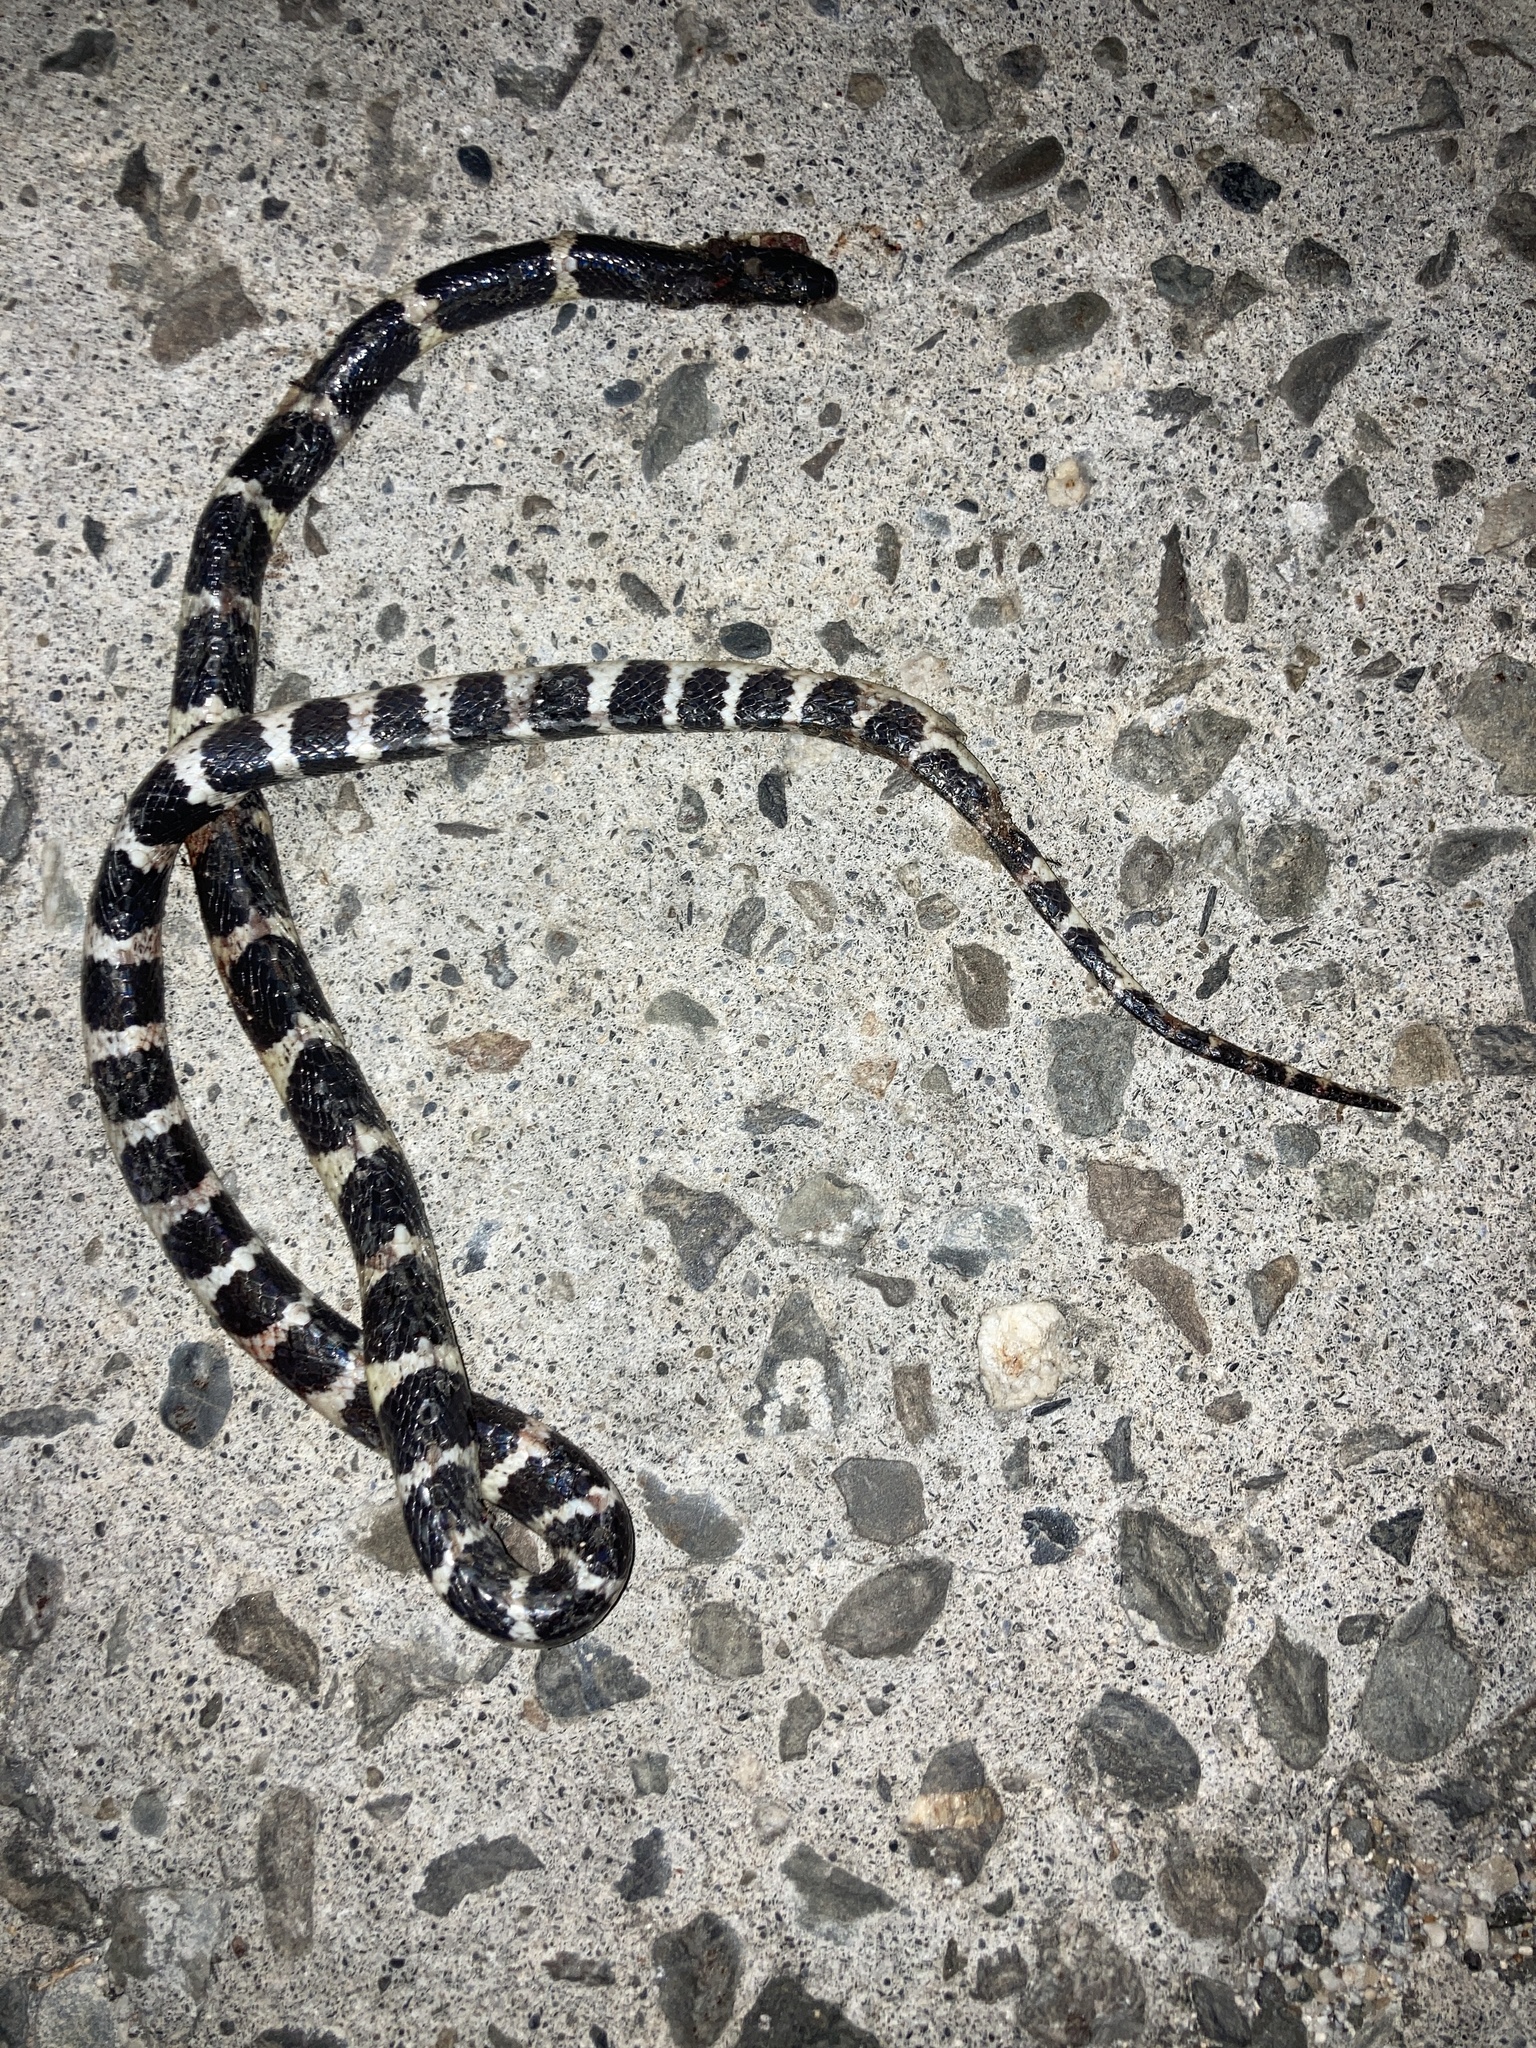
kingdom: Animalia
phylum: Chordata
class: Squamata
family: Elapidae
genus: Bungarus
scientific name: Bungarus multicinctus
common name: Many-banded krait
